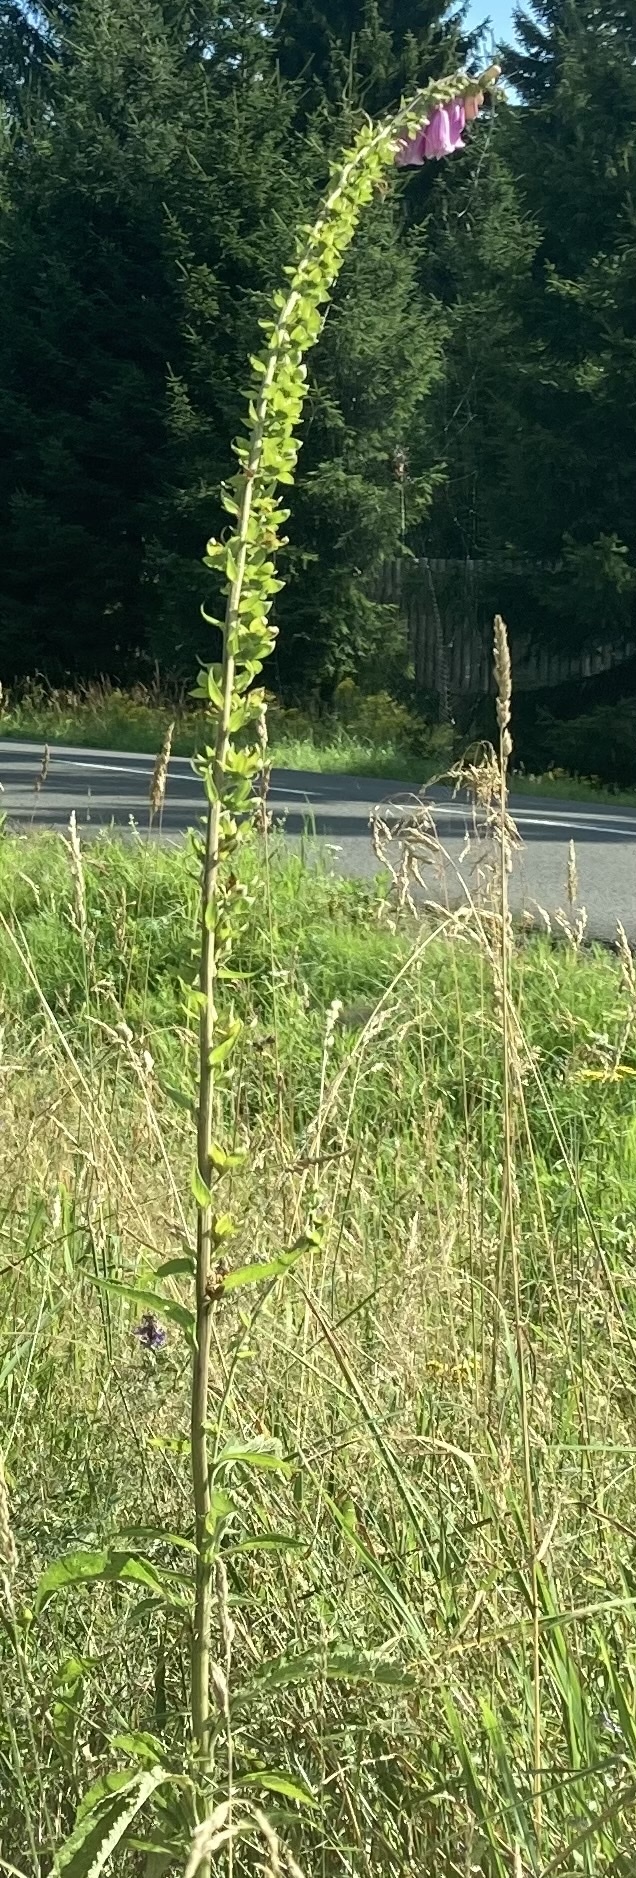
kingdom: Plantae
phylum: Tracheophyta
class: Magnoliopsida
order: Lamiales
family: Plantaginaceae
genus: Digitalis
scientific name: Digitalis purpurea
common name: Foxglove
